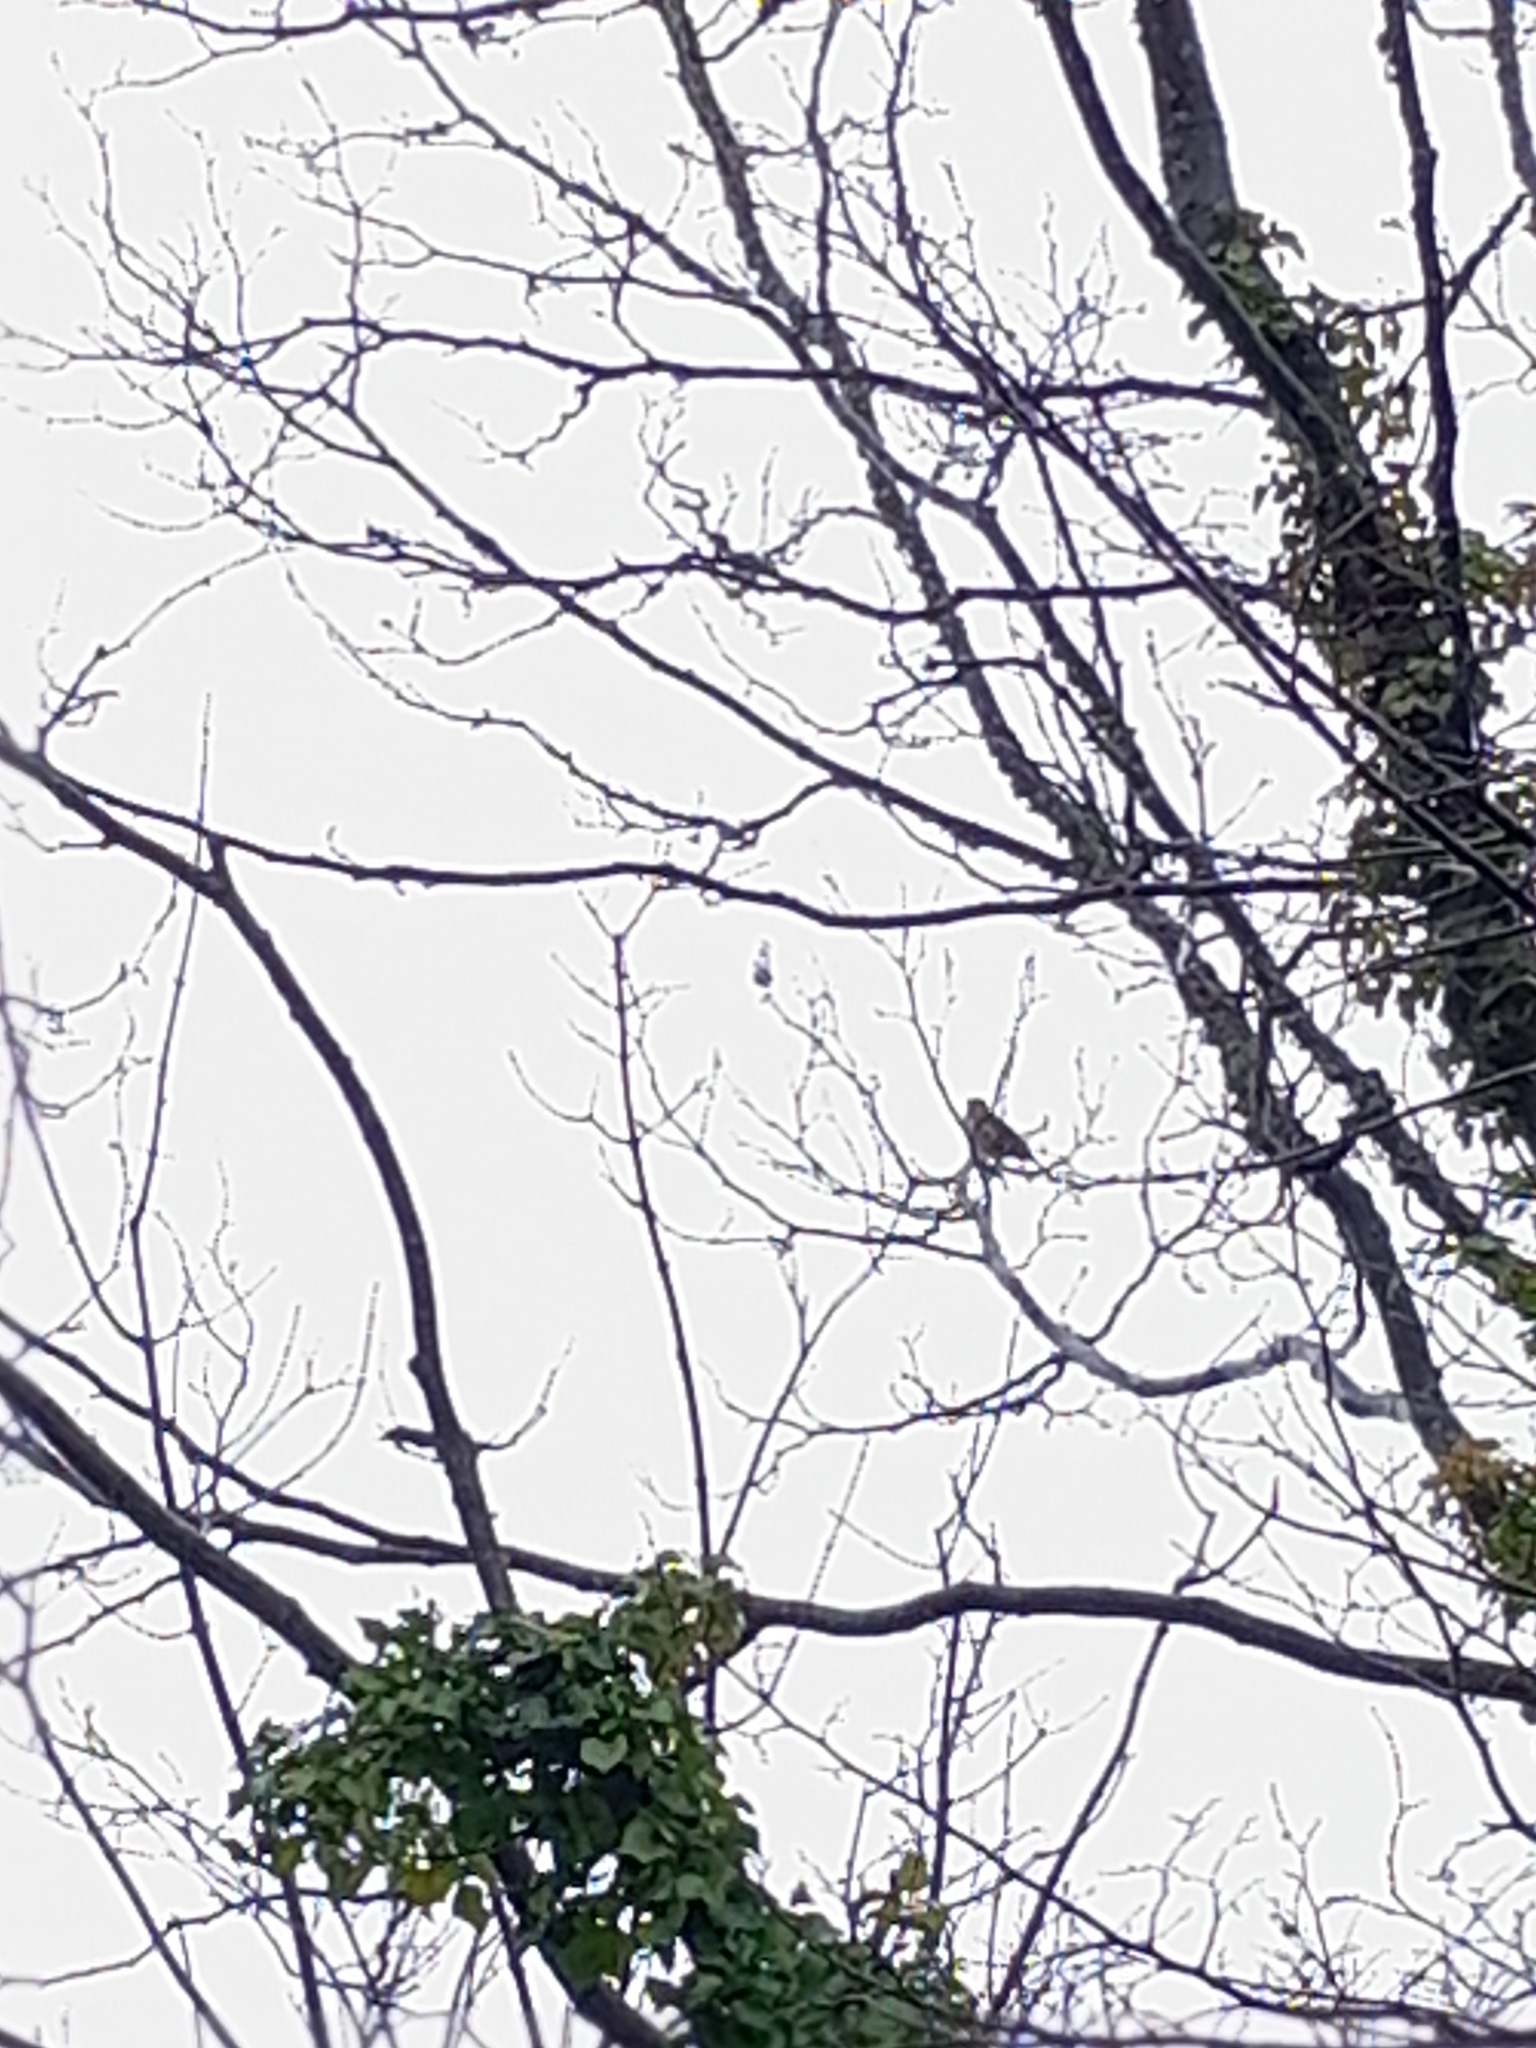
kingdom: Animalia
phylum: Chordata
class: Aves
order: Passeriformes
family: Turdidae
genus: Turdus
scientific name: Turdus philomelos
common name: Song thrush
